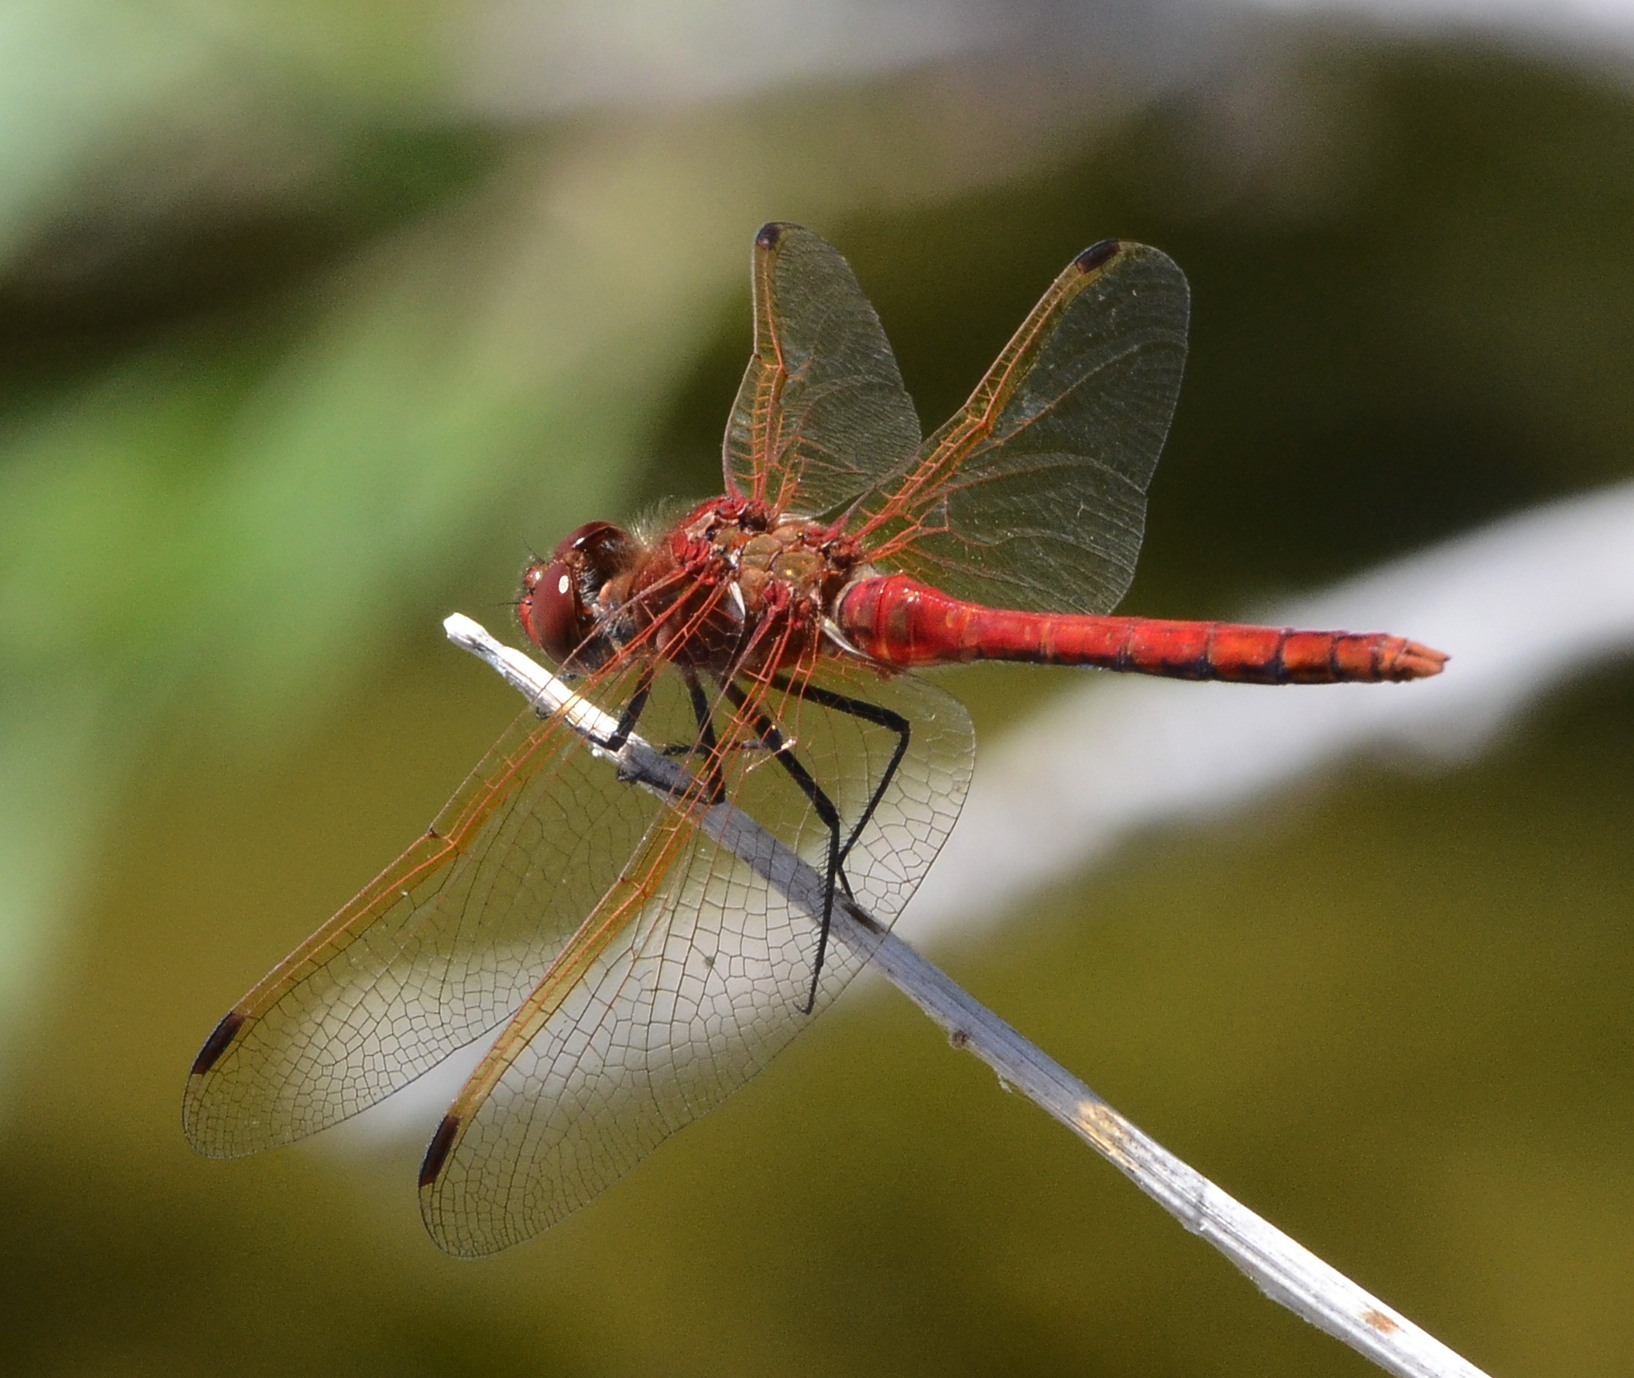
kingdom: Animalia
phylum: Arthropoda
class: Insecta
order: Odonata
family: Libellulidae
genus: Sympetrum
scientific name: Sympetrum madidum
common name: Red-veined meadowhawk
